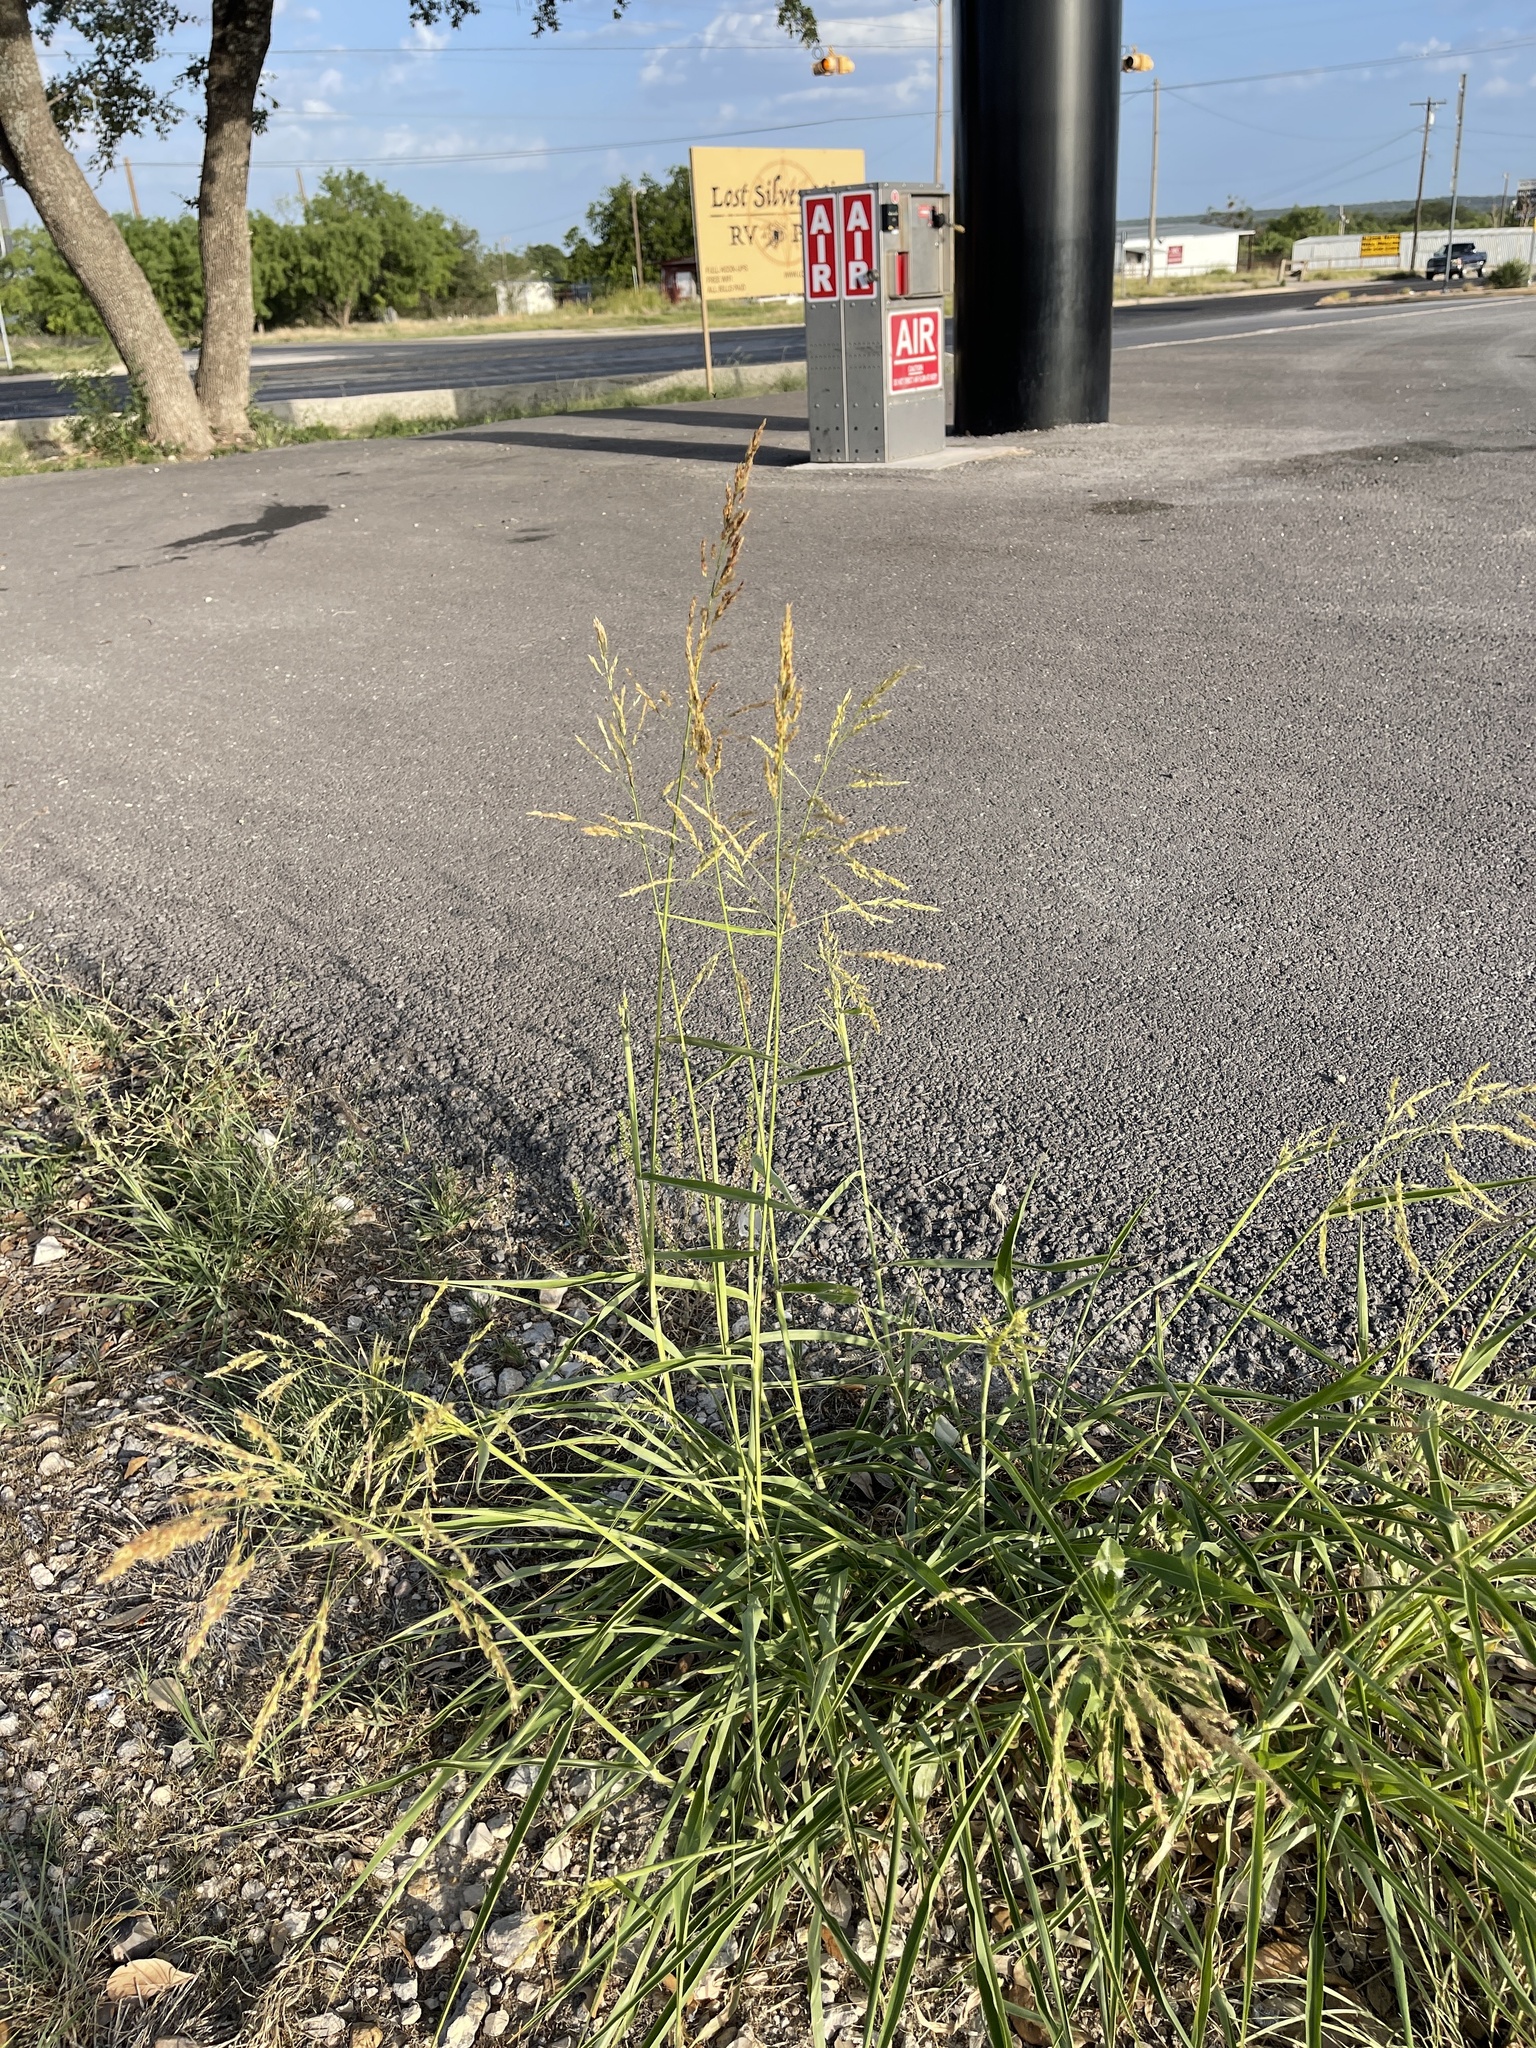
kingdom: Plantae
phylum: Tracheophyta
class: Liliopsida
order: Poales
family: Poaceae
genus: Sorghum
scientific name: Sorghum halepense
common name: Johnson-grass
